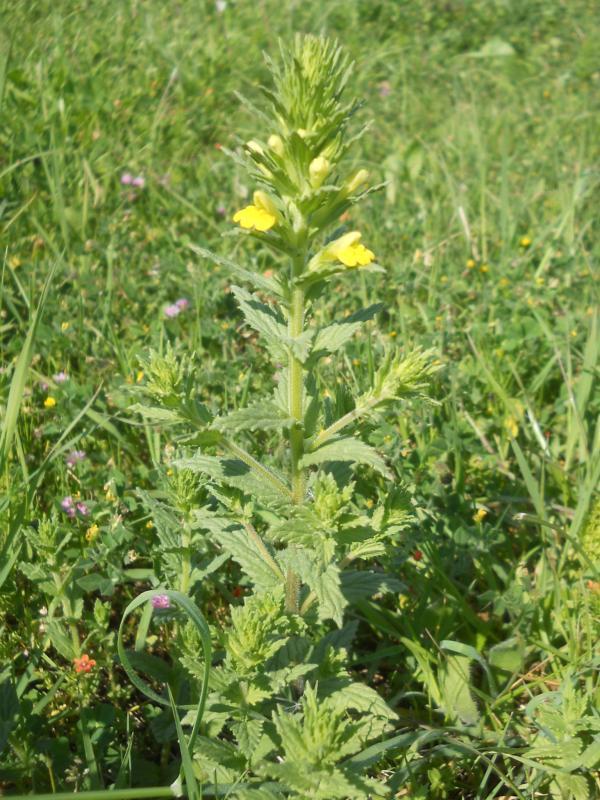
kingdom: Plantae
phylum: Tracheophyta
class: Magnoliopsida
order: Lamiales
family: Orobanchaceae
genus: Bellardia
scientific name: Bellardia viscosa
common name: Sticky parentucellia
